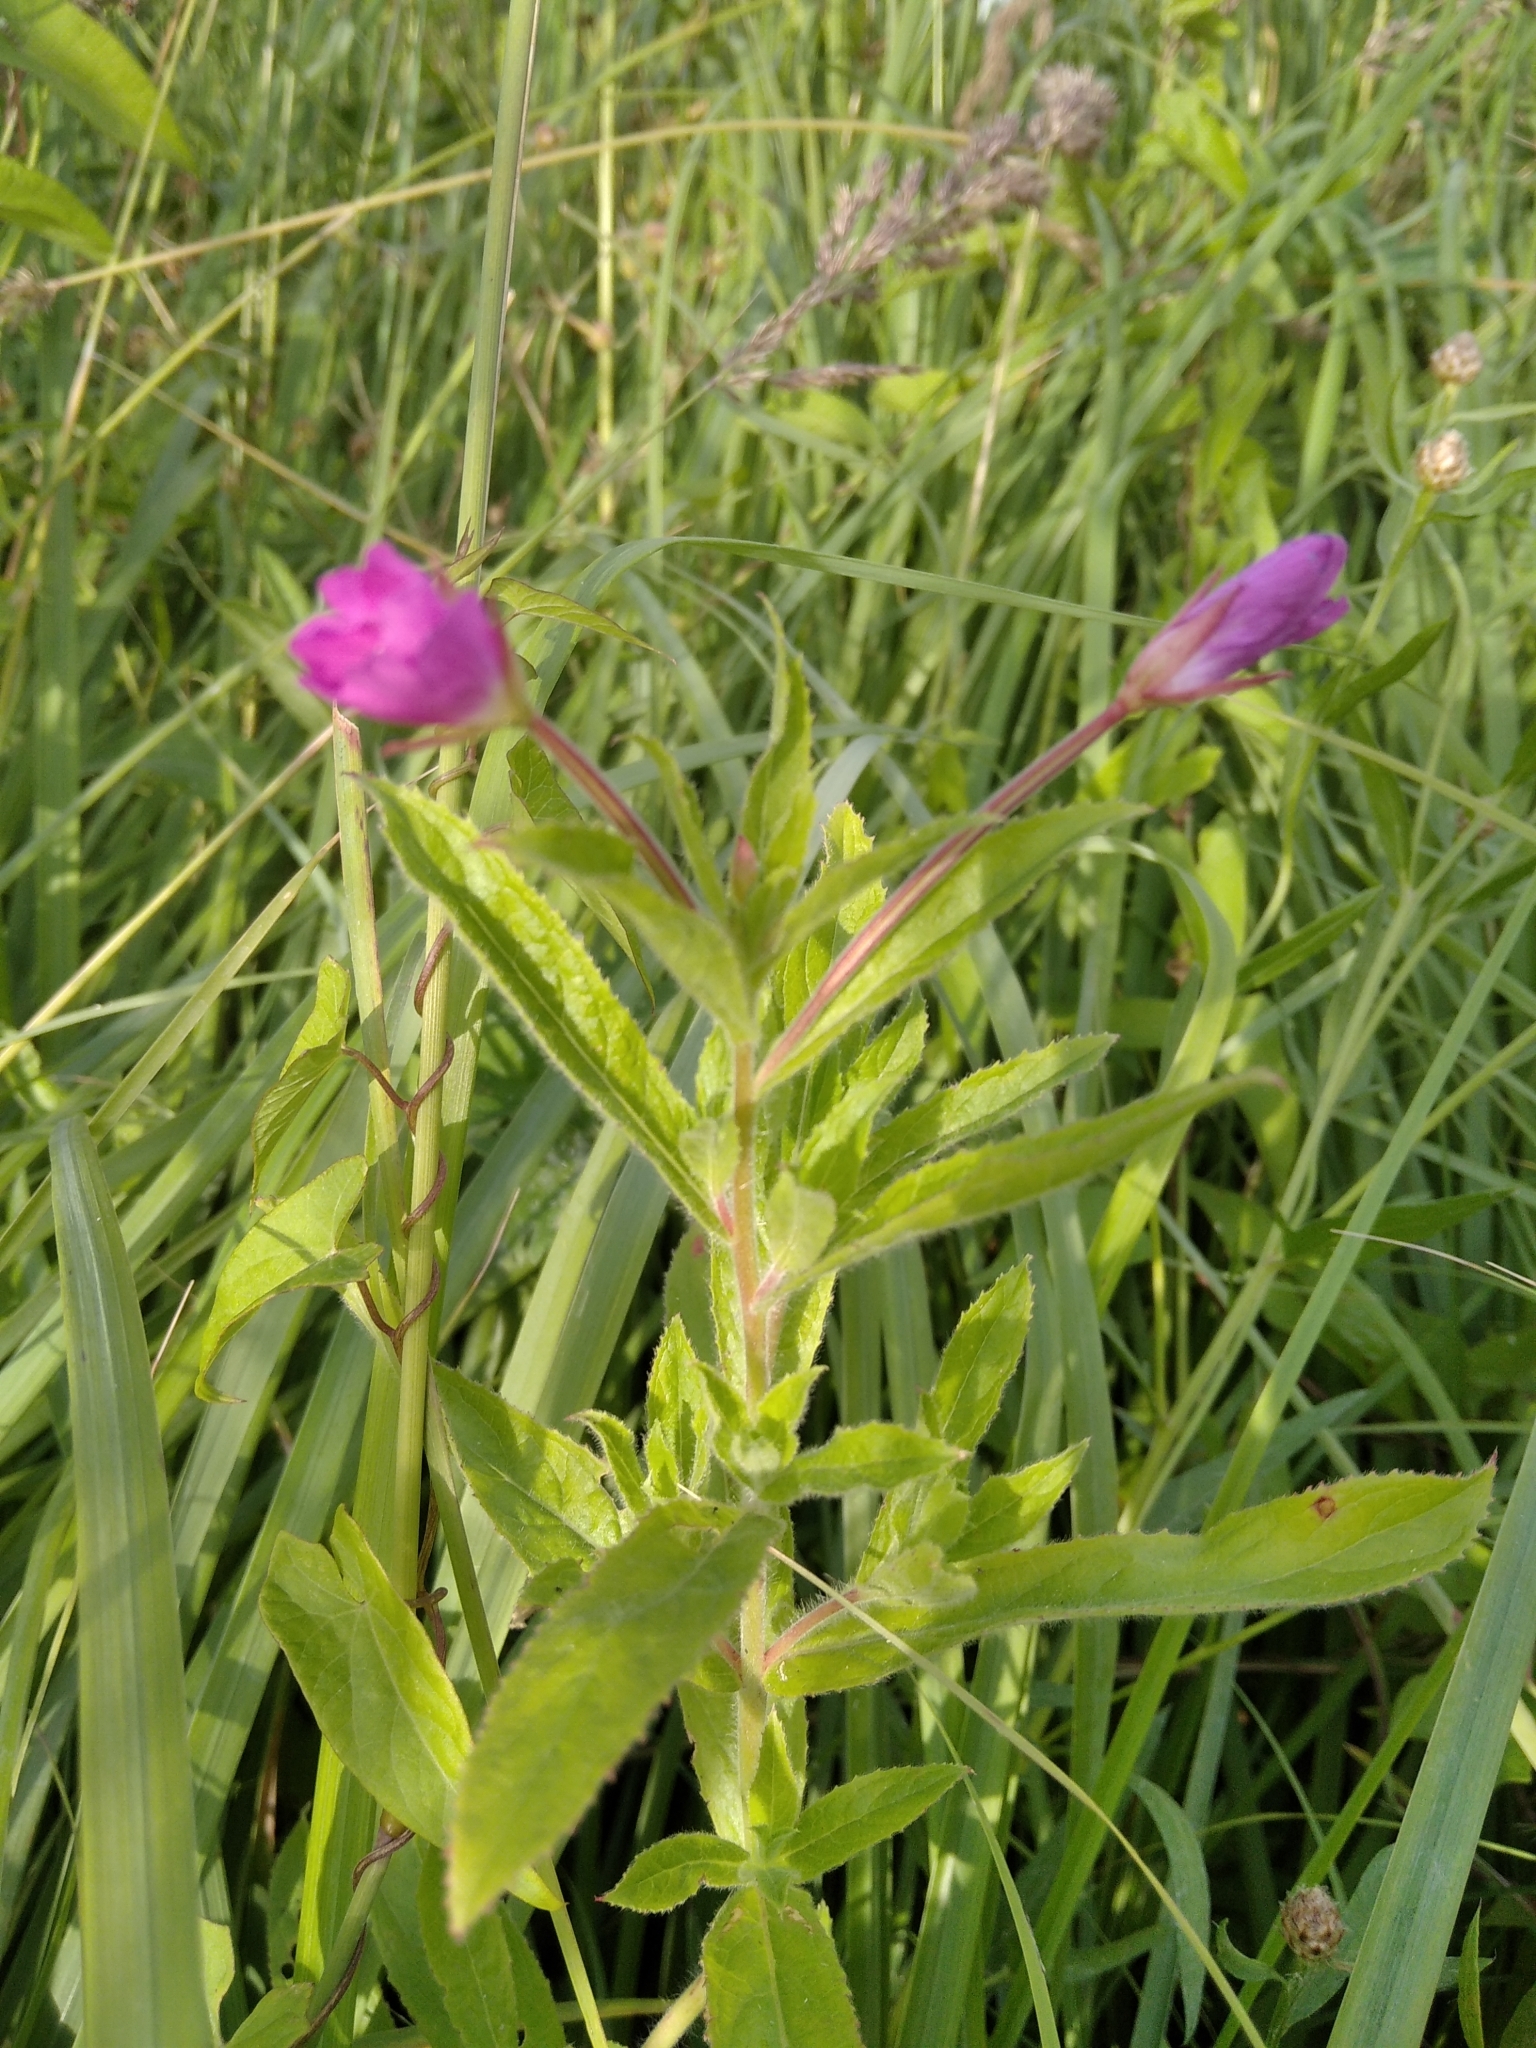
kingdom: Plantae
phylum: Tracheophyta
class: Magnoliopsida
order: Myrtales
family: Onagraceae
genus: Epilobium
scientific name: Epilobium hirsutum
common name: Great willowherb
